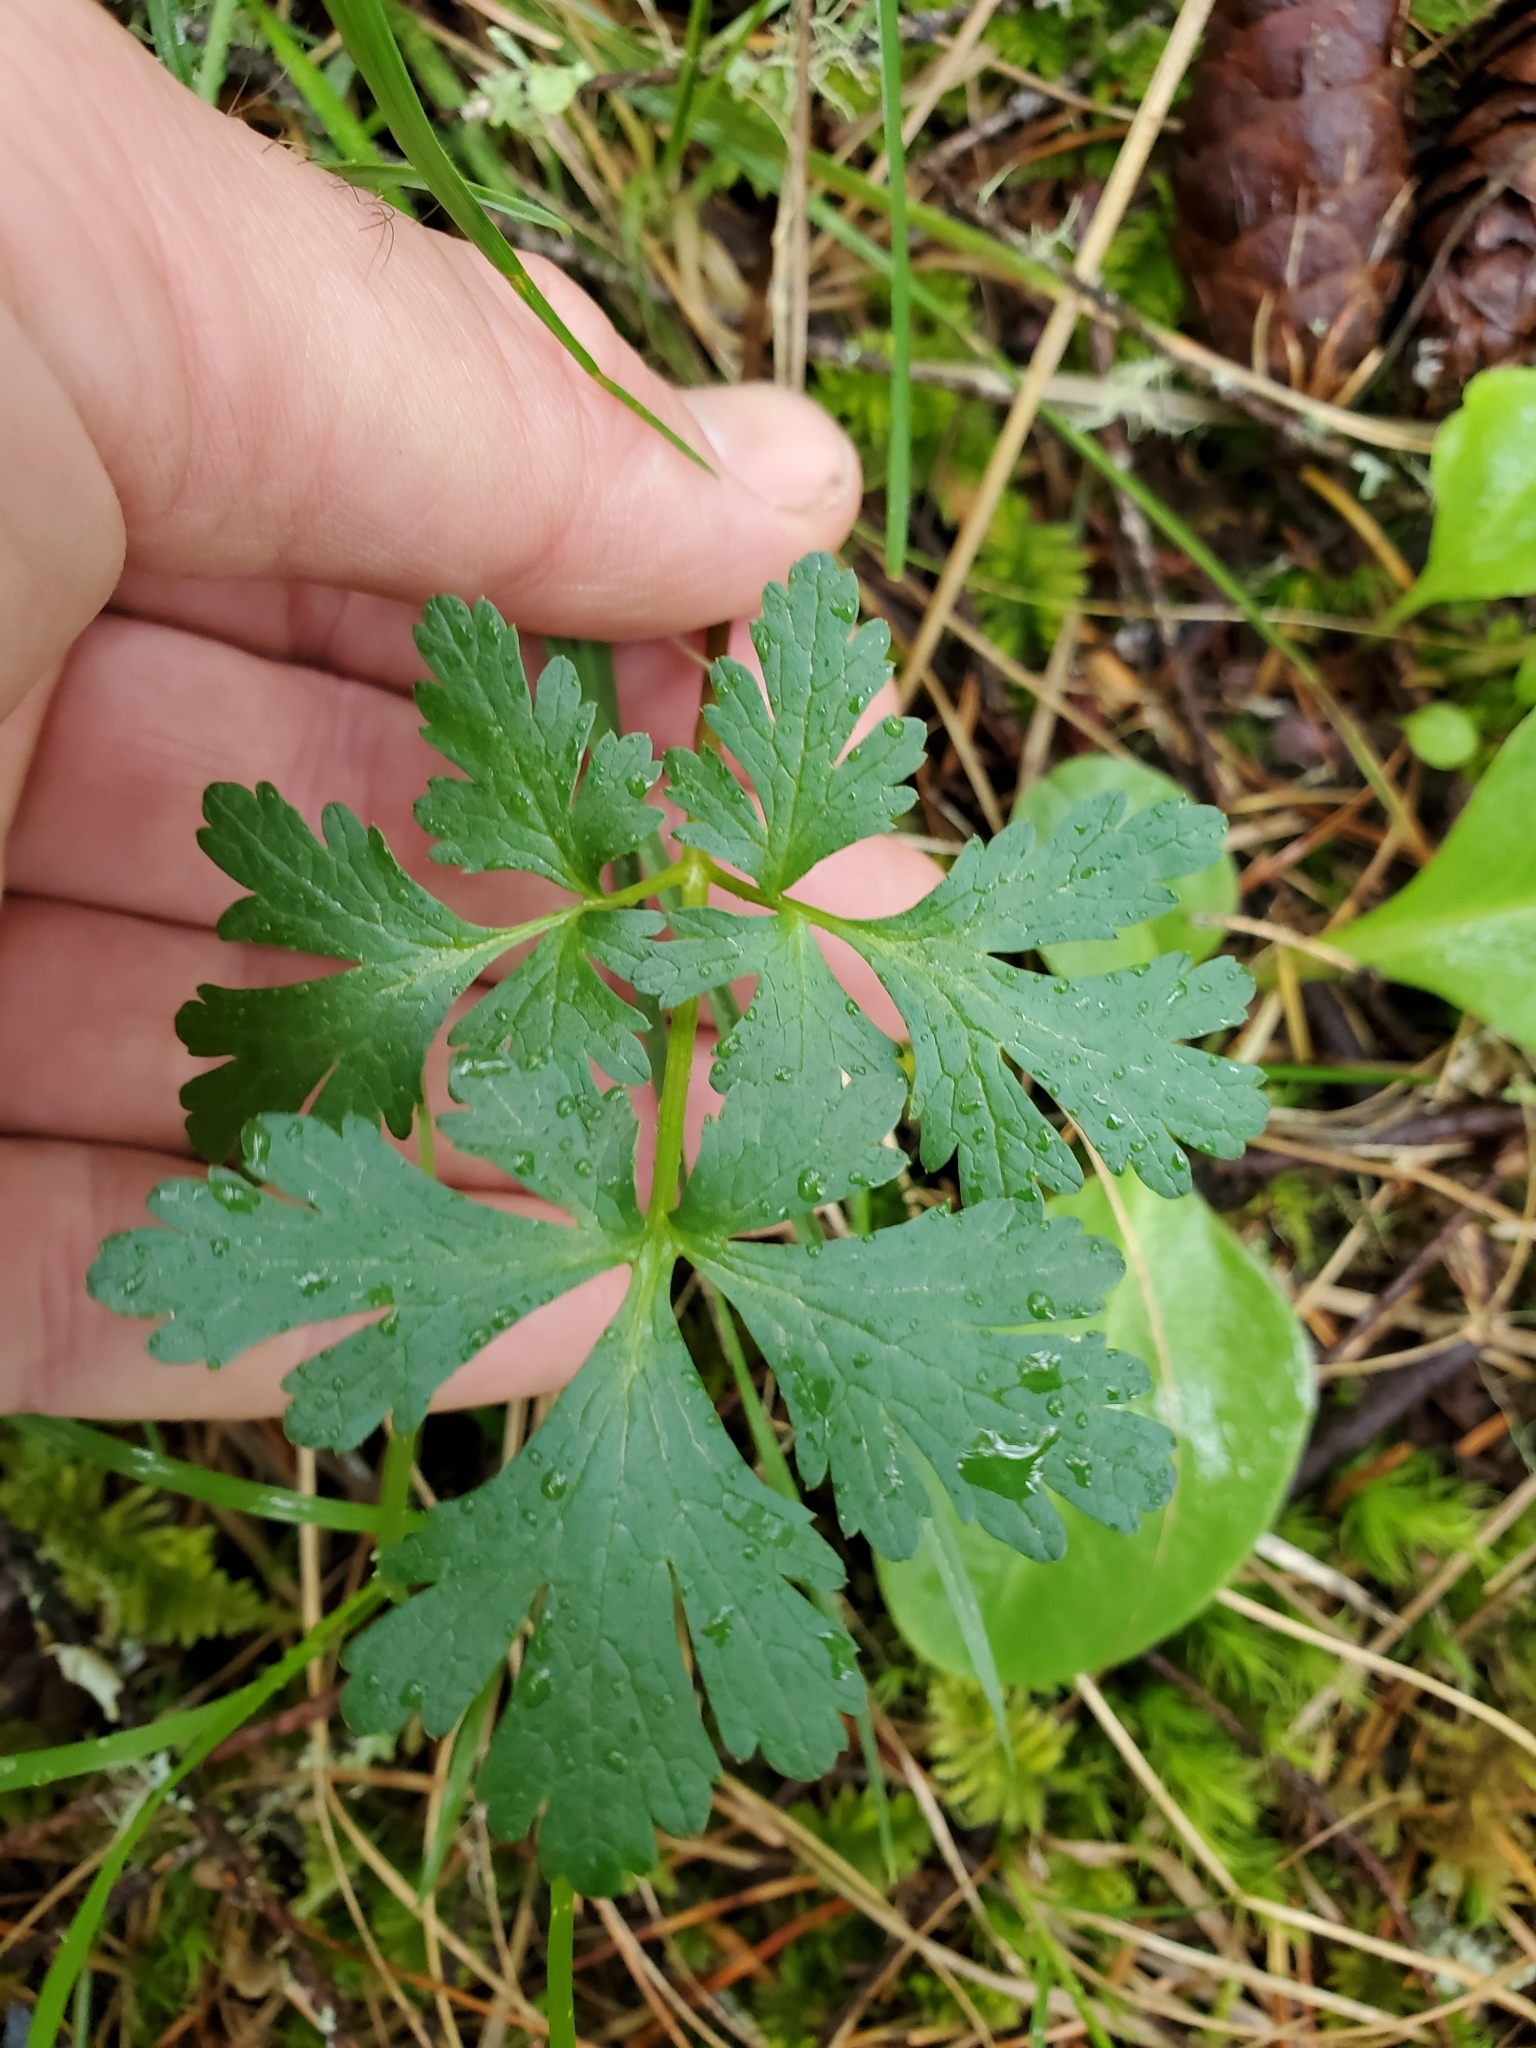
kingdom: Plantae
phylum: Tracheophyta
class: Magnoliopsida
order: Apiales
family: Apiaceae
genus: Sanicula
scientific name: Sanicula graveolens
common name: Sierra sanicle
